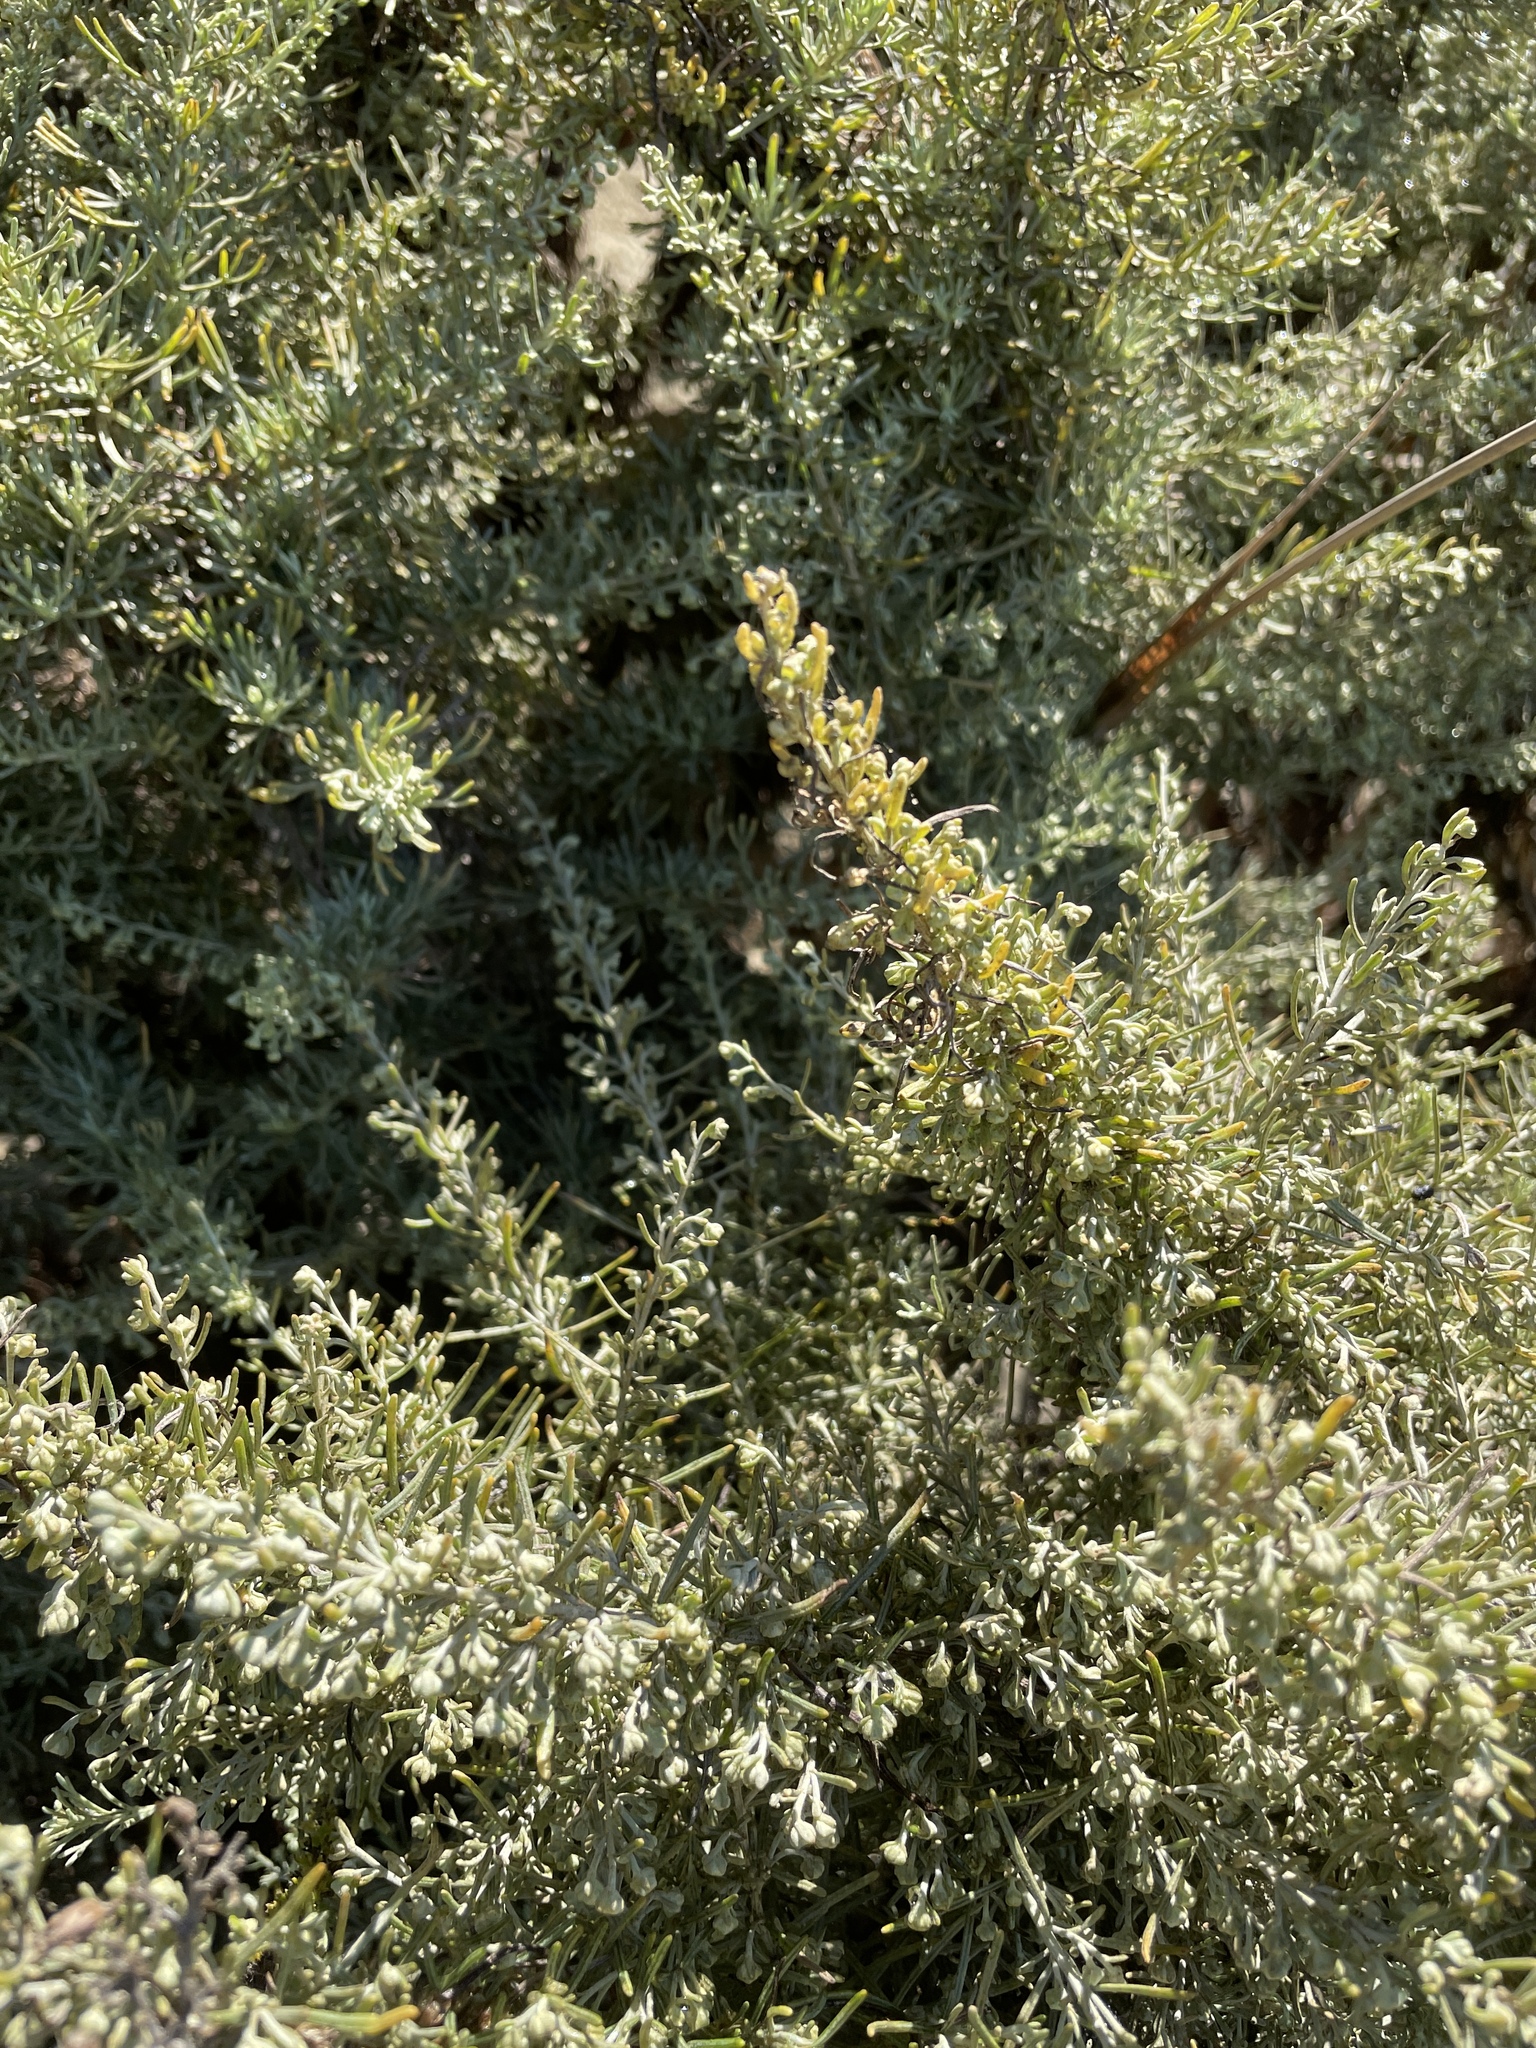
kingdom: Plantae
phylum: Tracheophyta
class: Magnoliopsida
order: Asterales
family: Asteraceae
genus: Artemisia
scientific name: Artemisia californica
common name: California sagebrush
